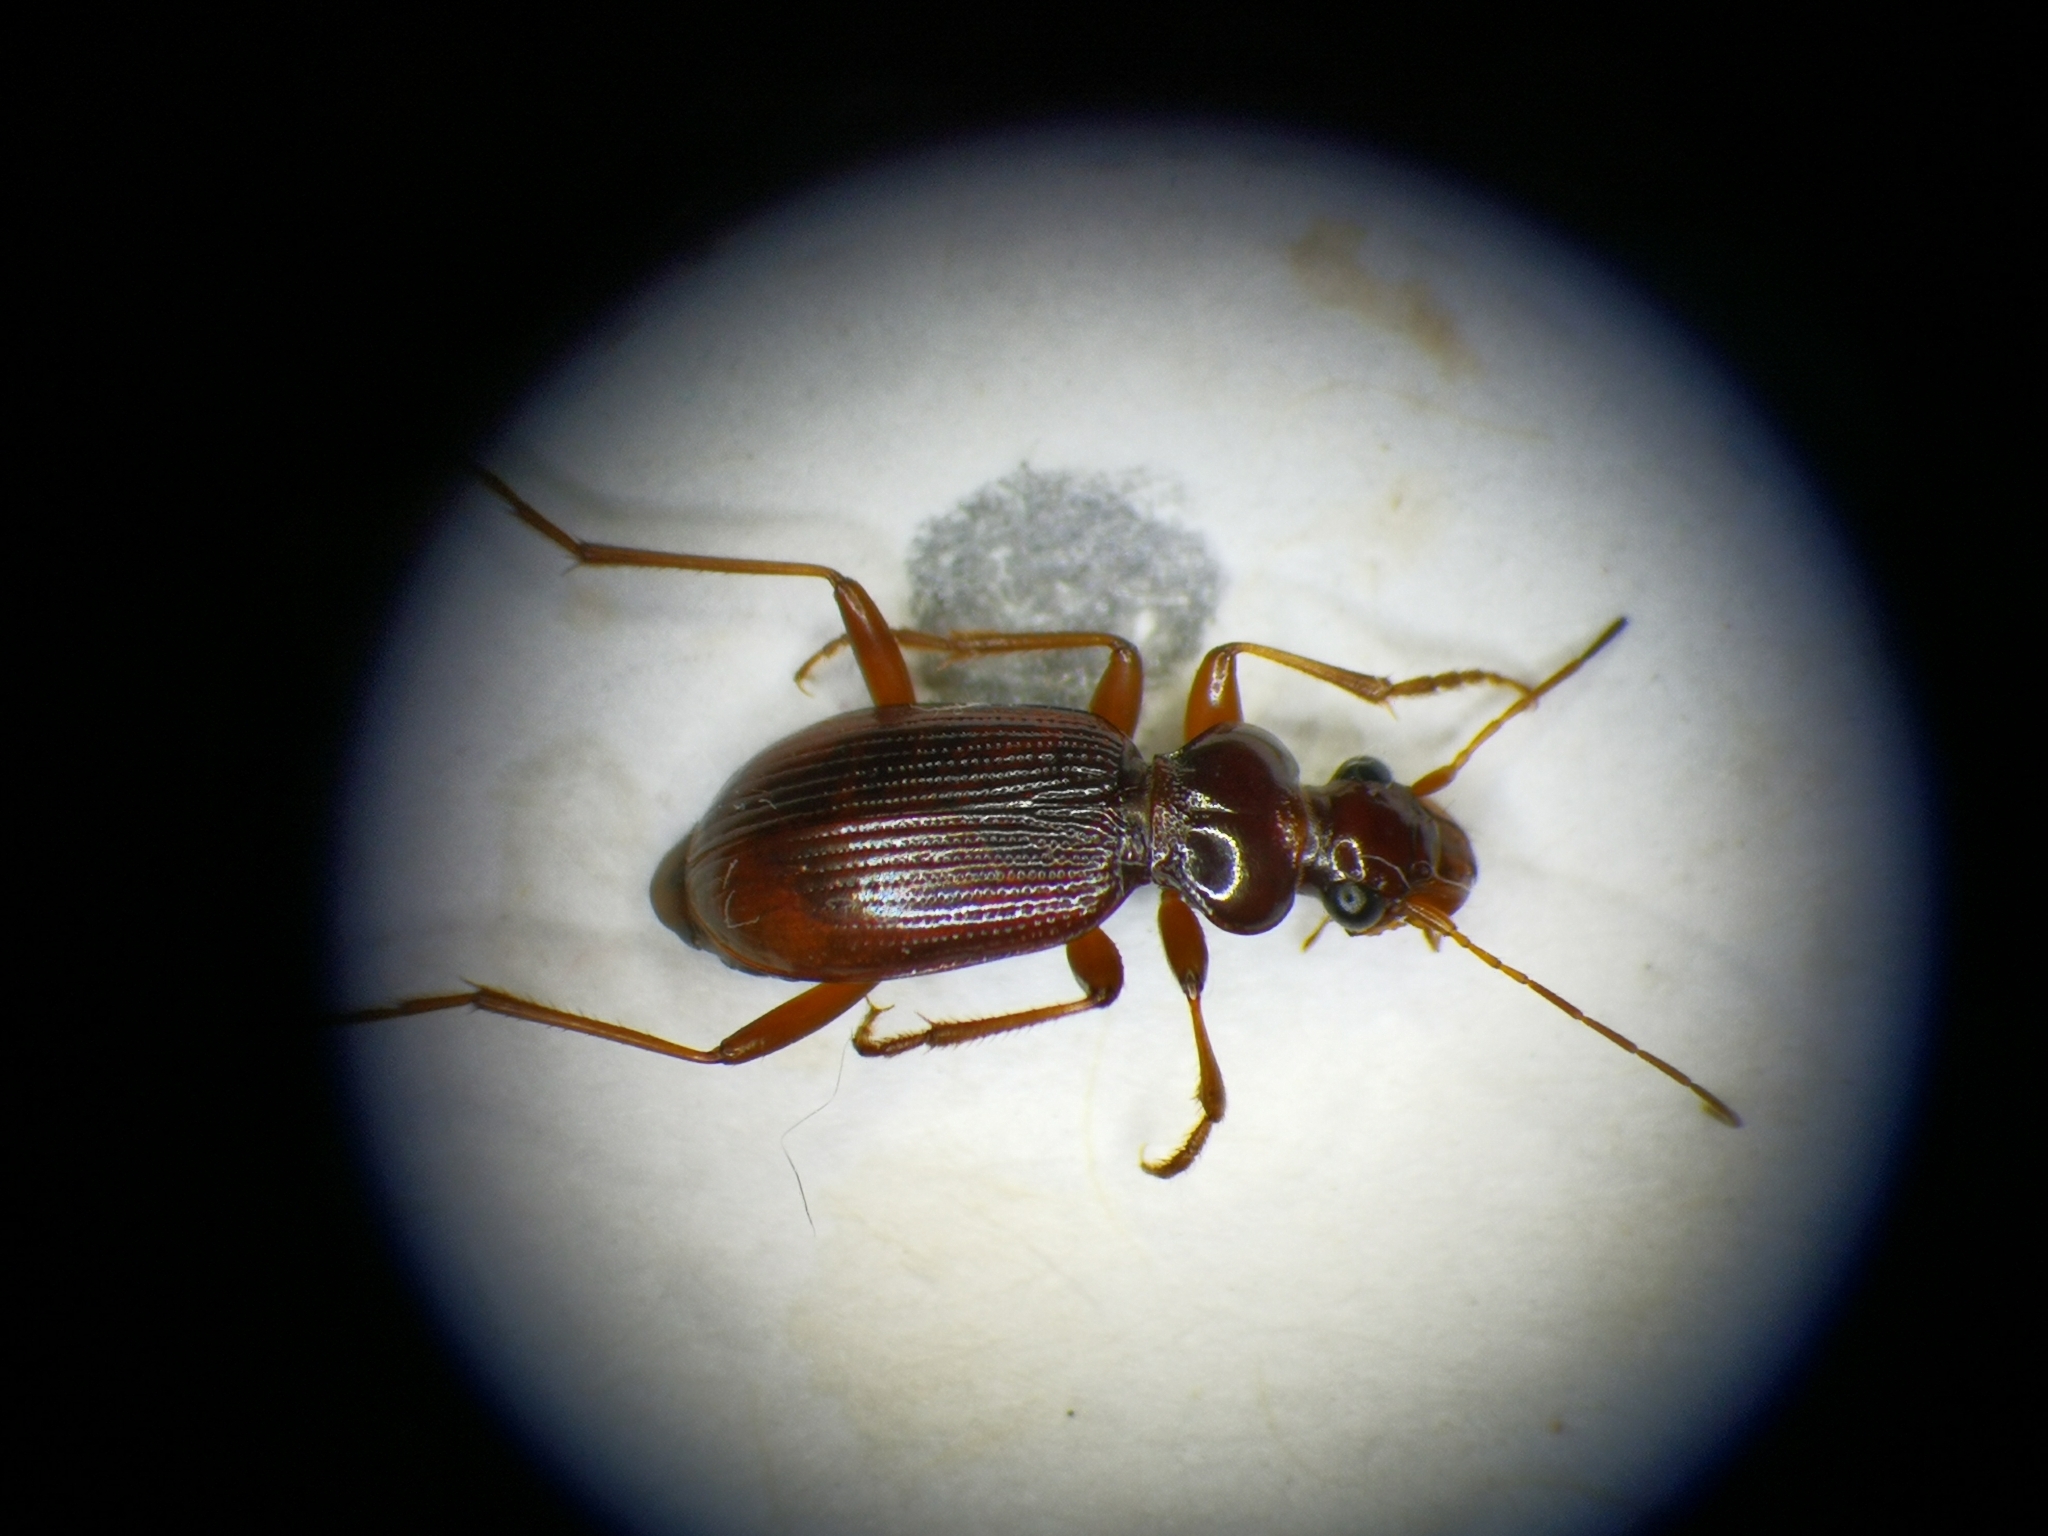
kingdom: Animalia
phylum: Arthropoda
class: Insecta
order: Coleoptera
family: Carabidae
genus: Leistus
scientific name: Leistus ferrugineus
